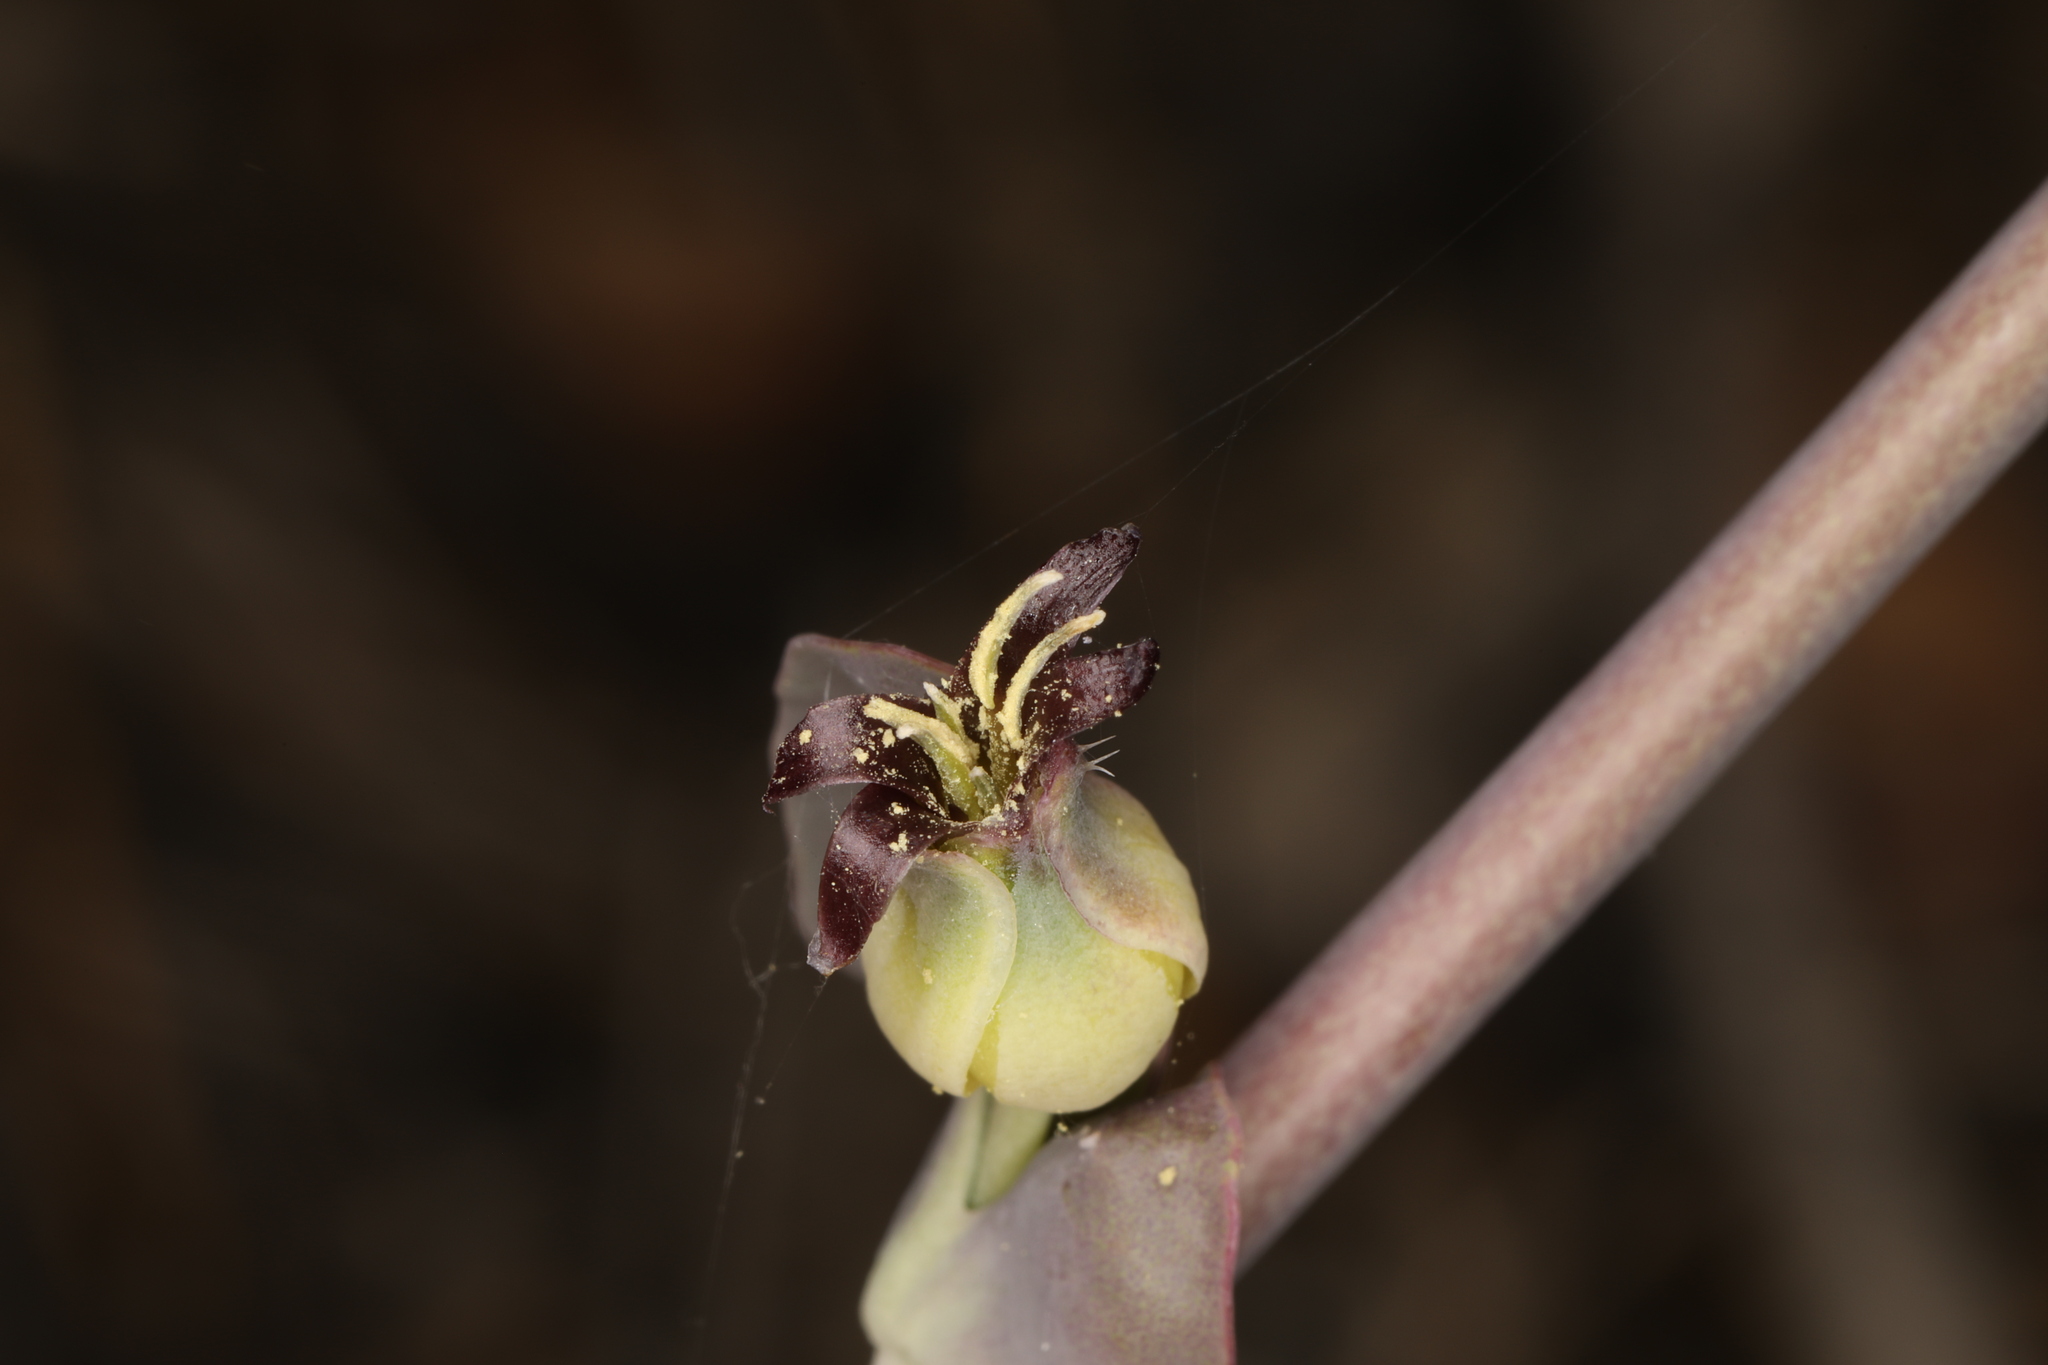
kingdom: Plantae
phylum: Tracheophyta
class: Magnoliopsida
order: Brassicales
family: Brassicaceae
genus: Streptanthus
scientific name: Streptanthus cordatus
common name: Heart-leaf jewel-flower
